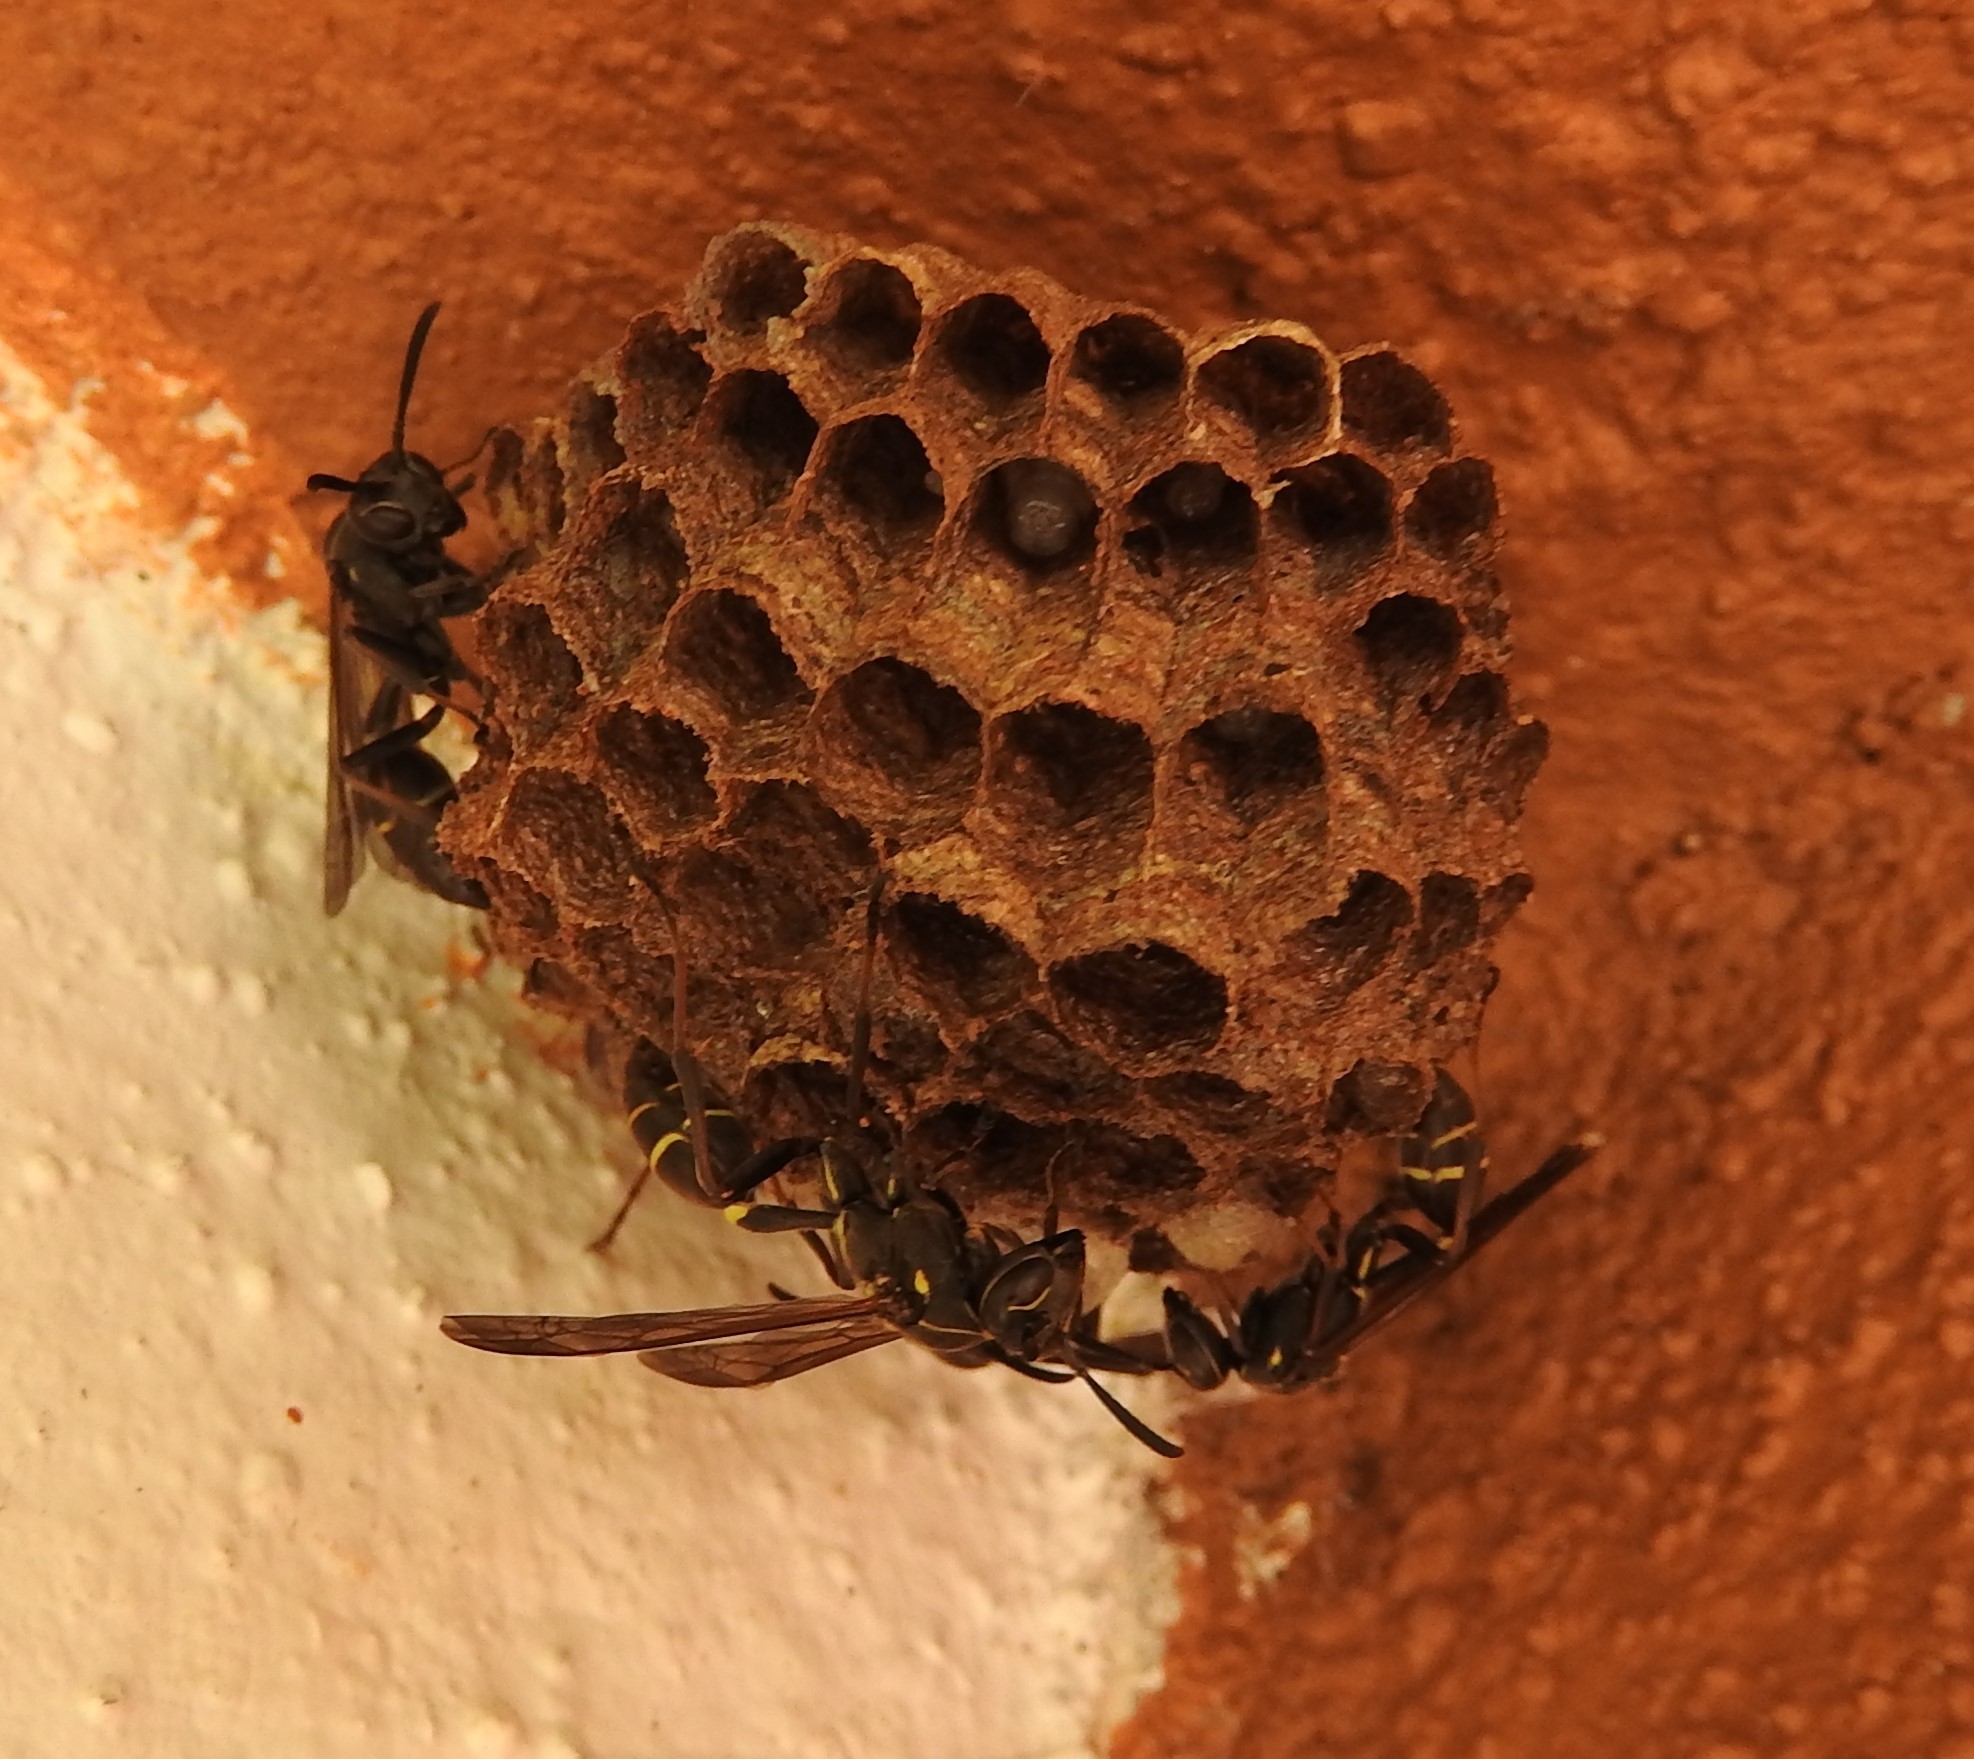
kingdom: Animalia
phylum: Arthropoda
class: Insecta
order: Hymenoptera
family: Vespidae
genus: Mischocyttarus
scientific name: Mischocyttarus pallidipectus
